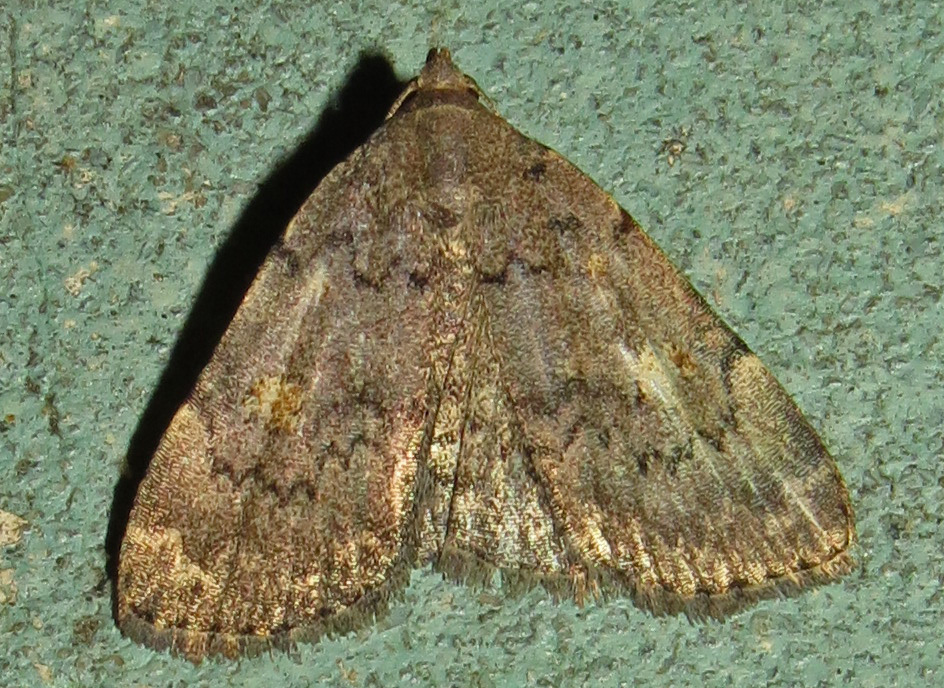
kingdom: Animalia
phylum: Arthropoda
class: Insecta
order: Lepidoptera
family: Erebidae
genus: Idia
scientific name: Idia aemula
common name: Common idia moth
